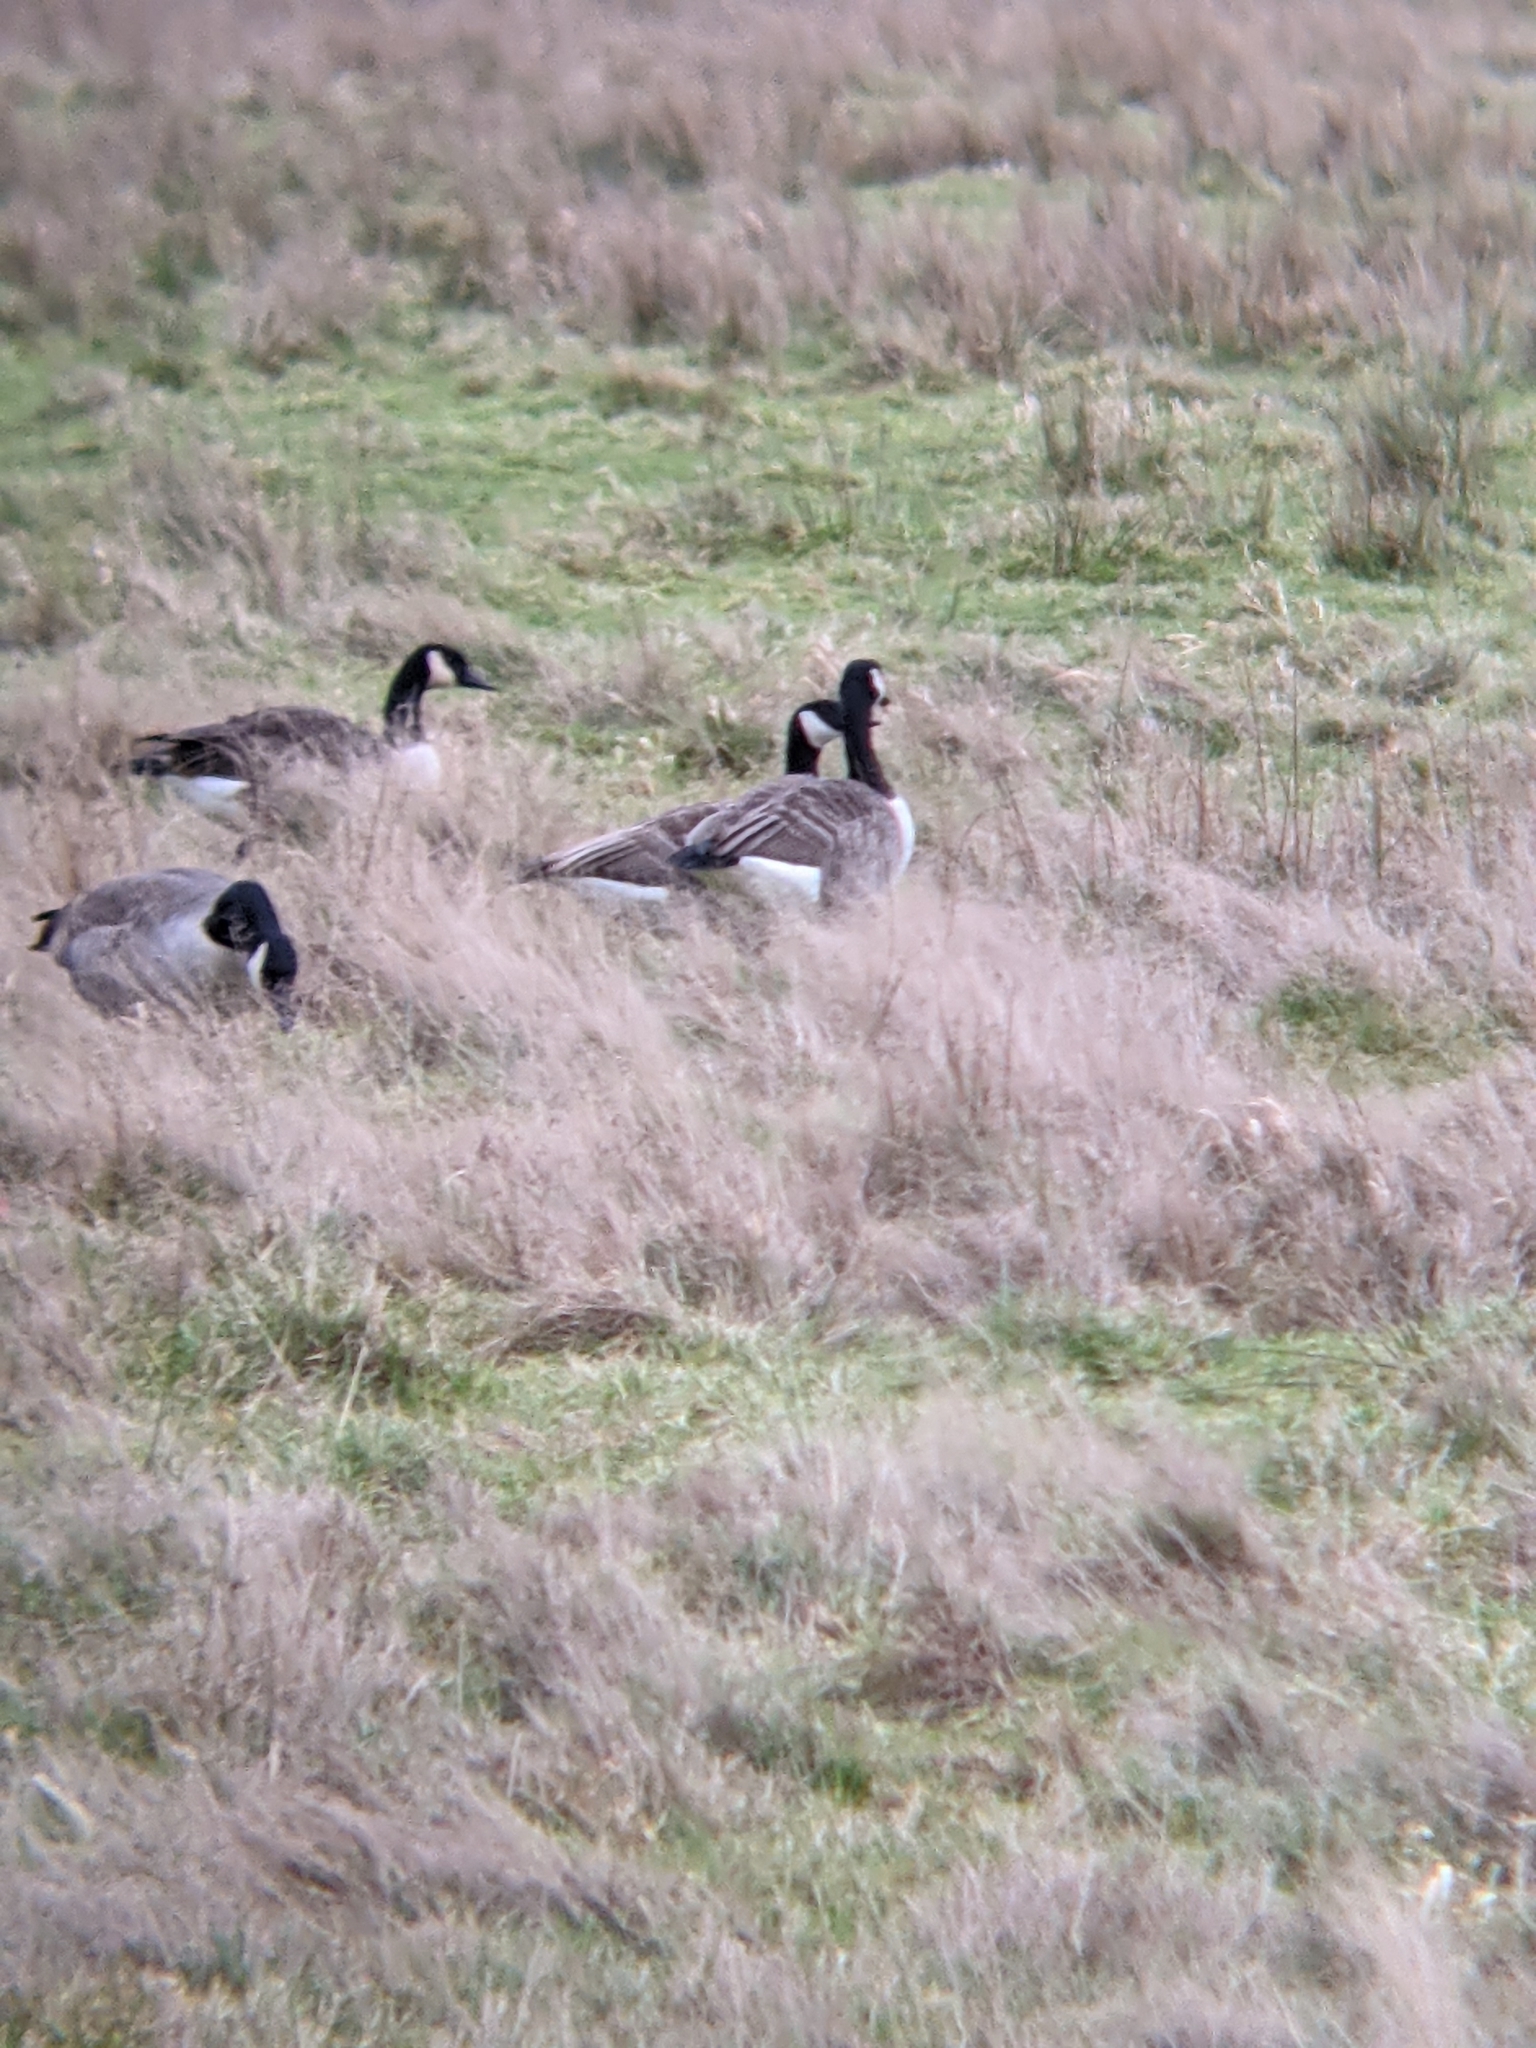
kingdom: Animalia
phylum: Chordata
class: Aves
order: Anseriformes
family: Anatidae
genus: Branta
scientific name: Branta canadensis
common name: Canada goose
